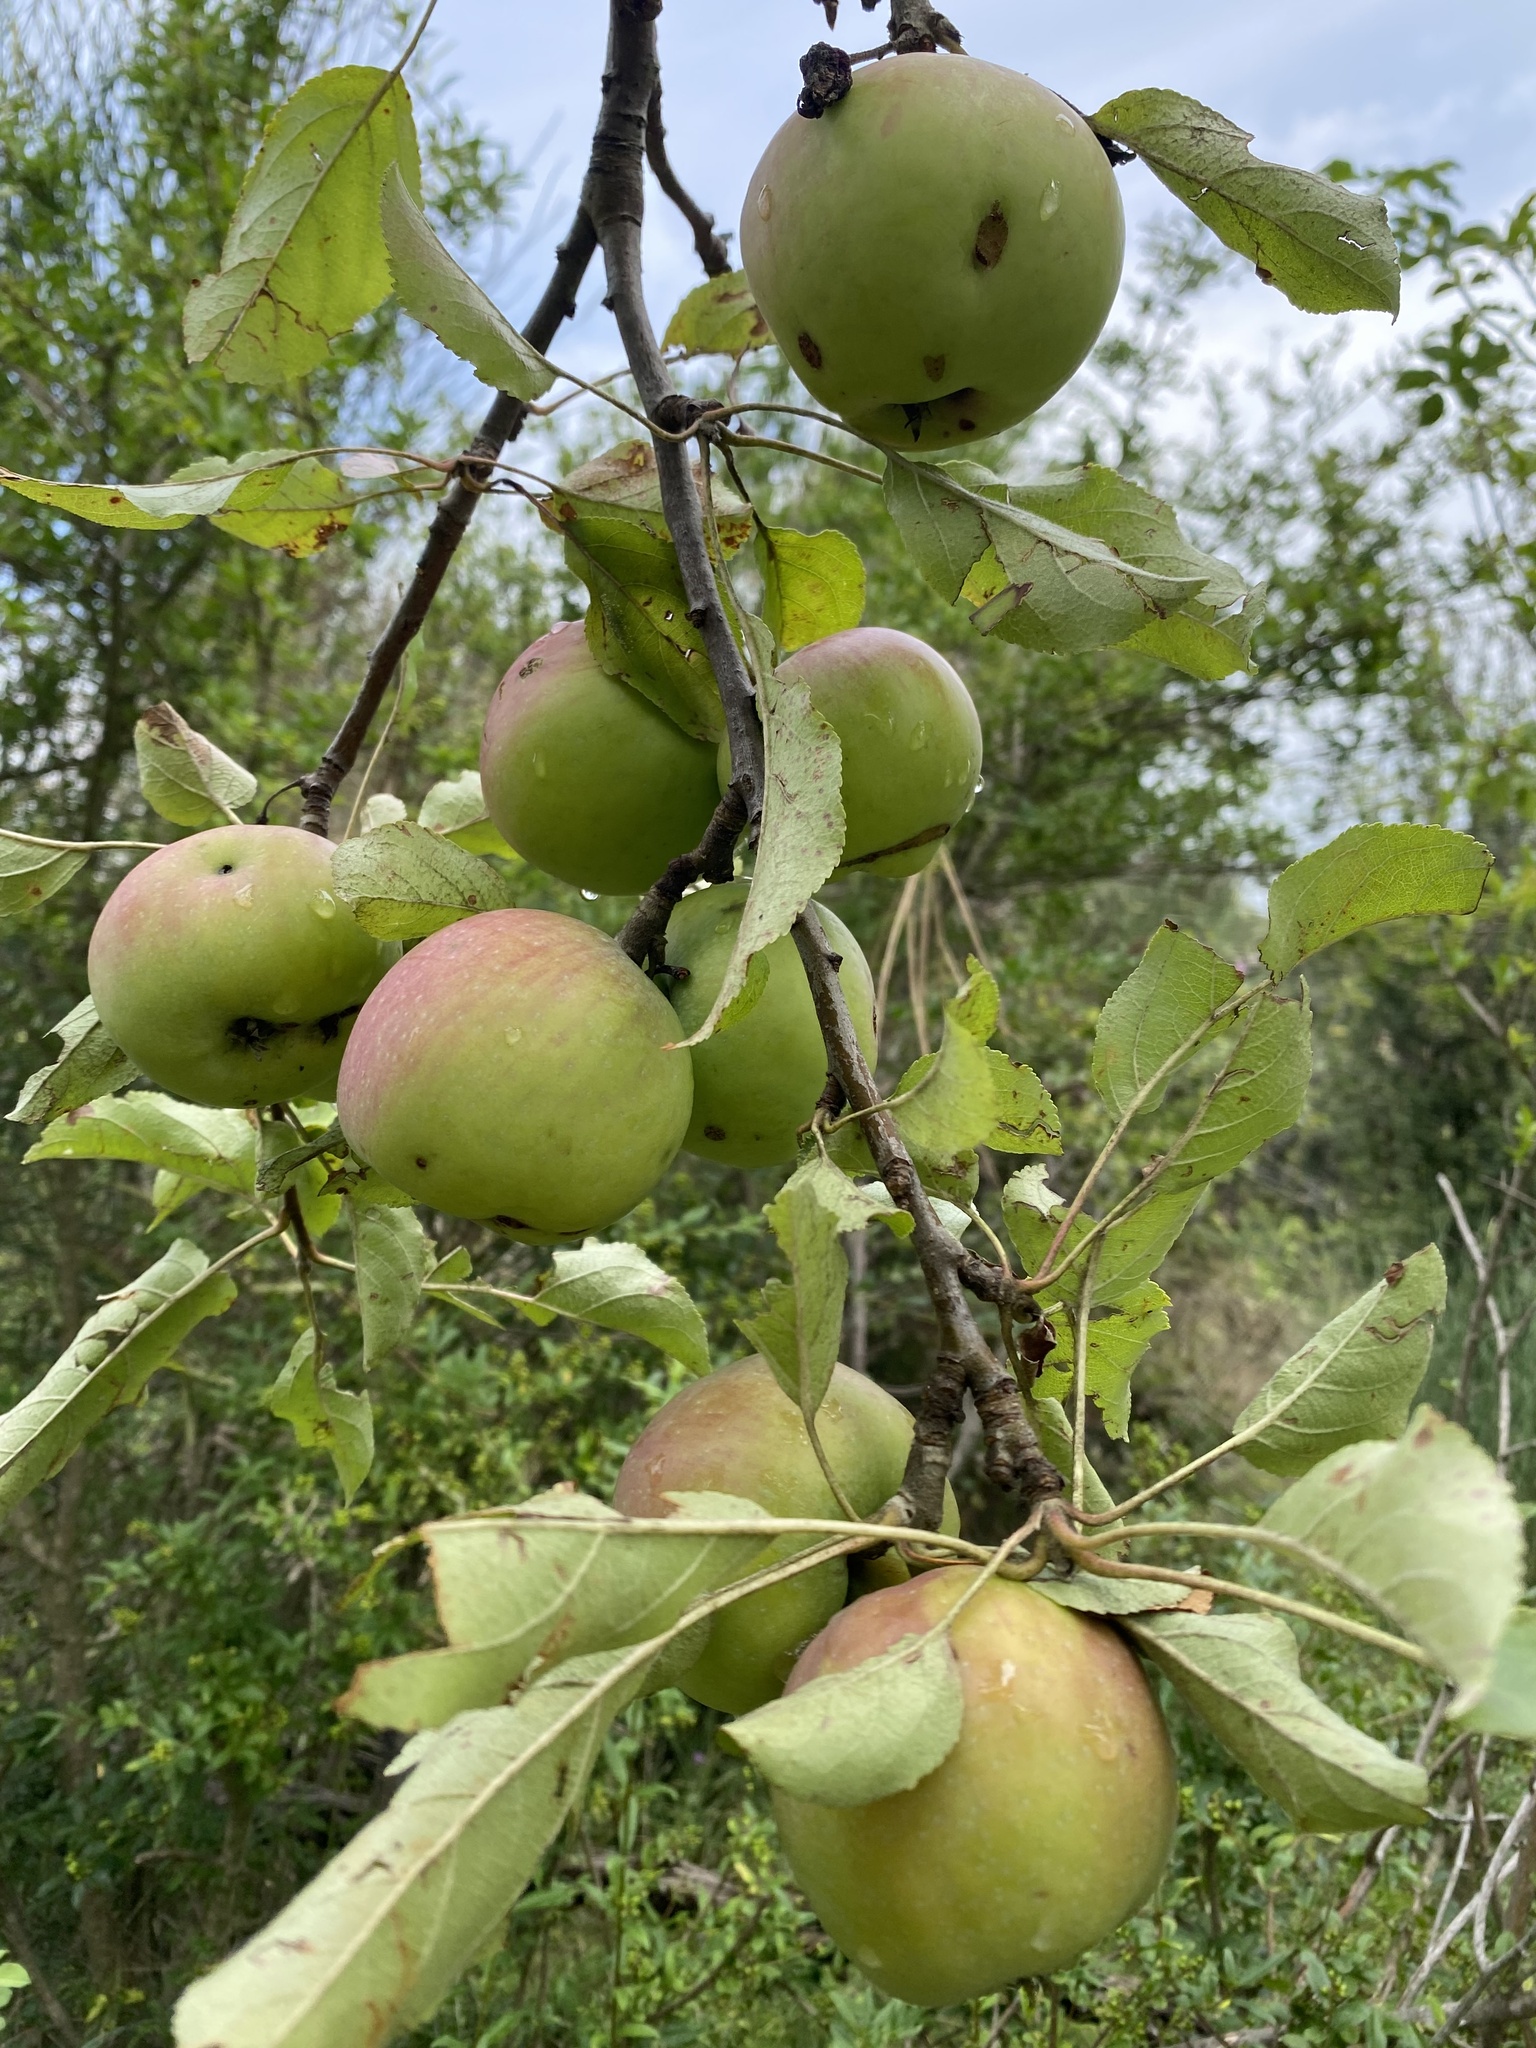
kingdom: Plantae
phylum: Tracheophyta
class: Magnoliopsida
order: Rosales
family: Rosaceae
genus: Malus
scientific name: Malus domestica
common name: Apple
